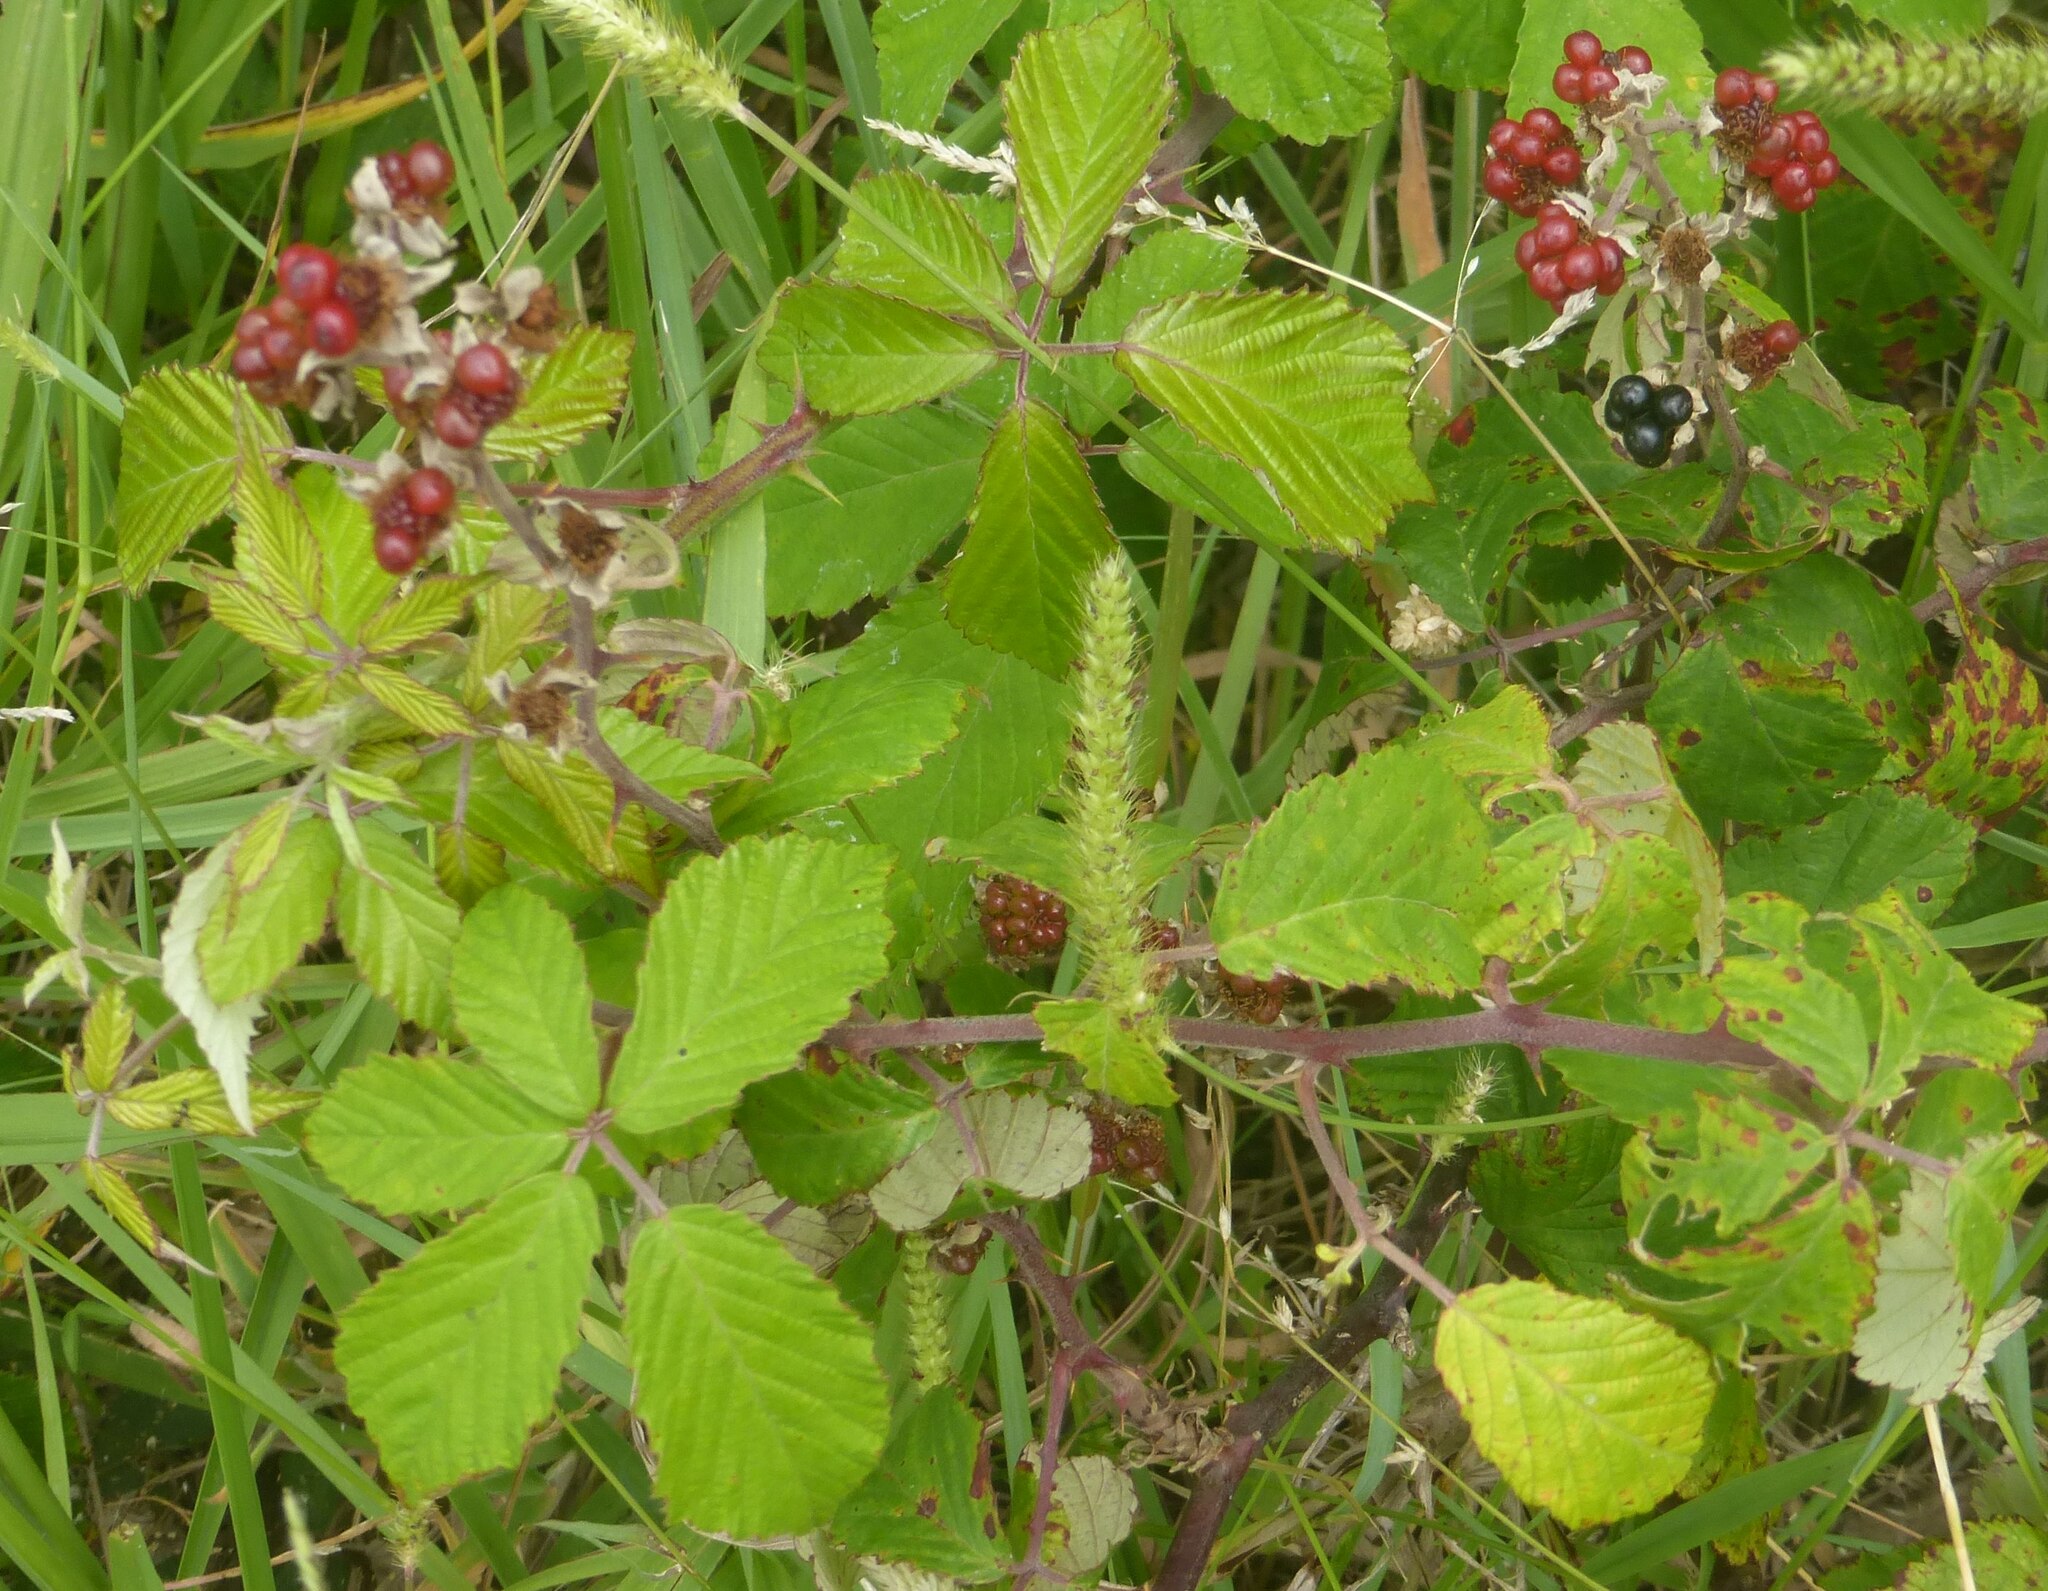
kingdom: Plantae
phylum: Tracheophyta
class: Magnoliopsida
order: Rosales
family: Rosaceae
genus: Rubus
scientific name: Rubus ulmifolius
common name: Elmleaf blackberry
